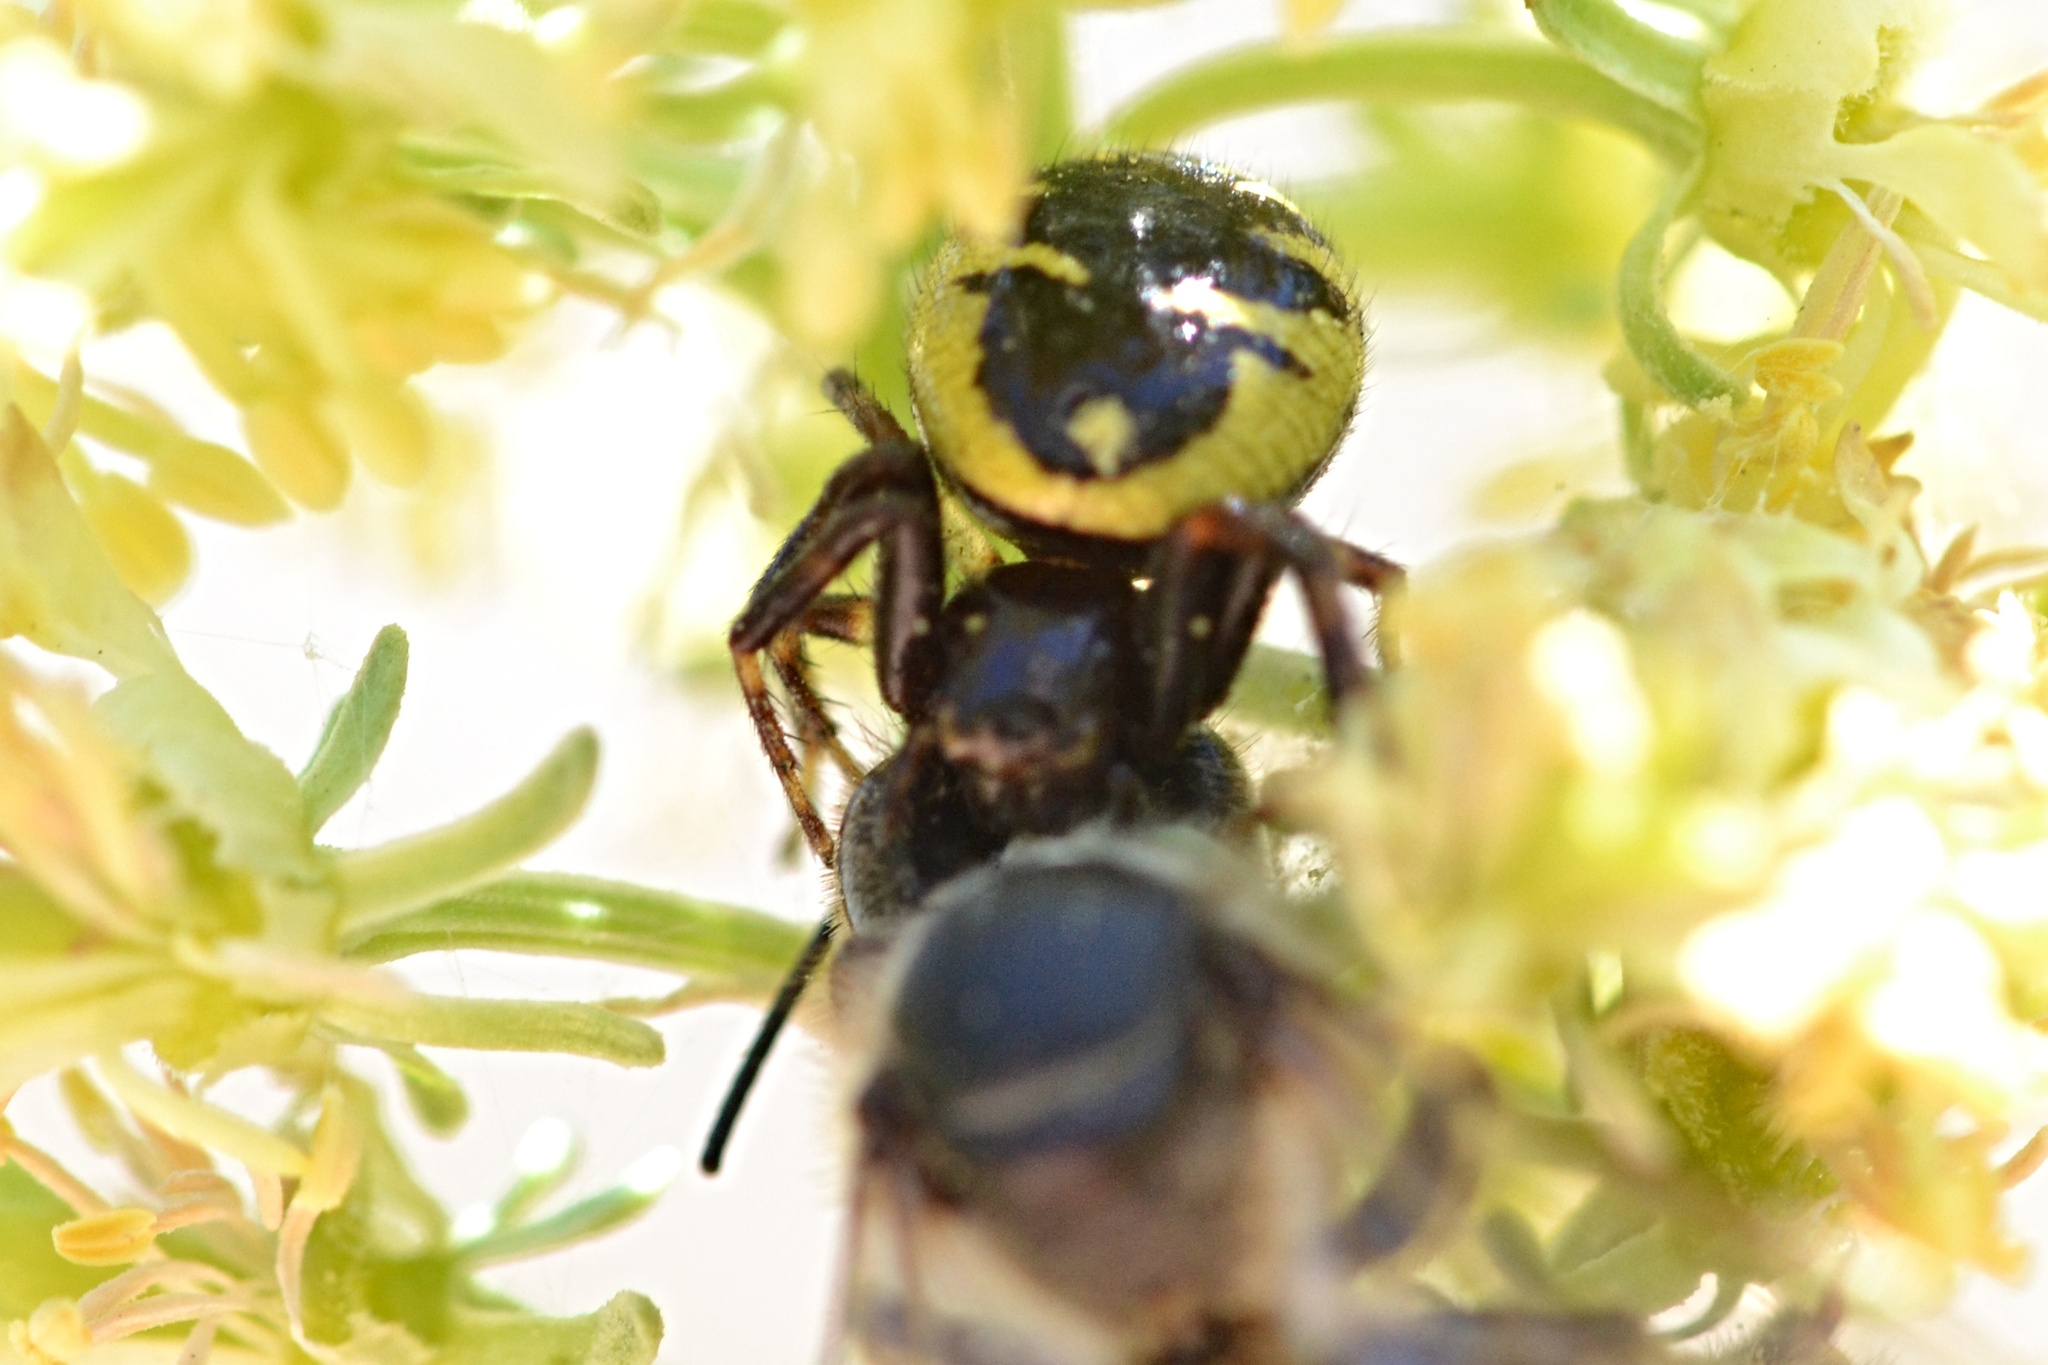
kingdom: Animalia
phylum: Arthropoda
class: Arachnida
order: Araneae
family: Thomisidae
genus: Synema
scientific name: Synema globosum
